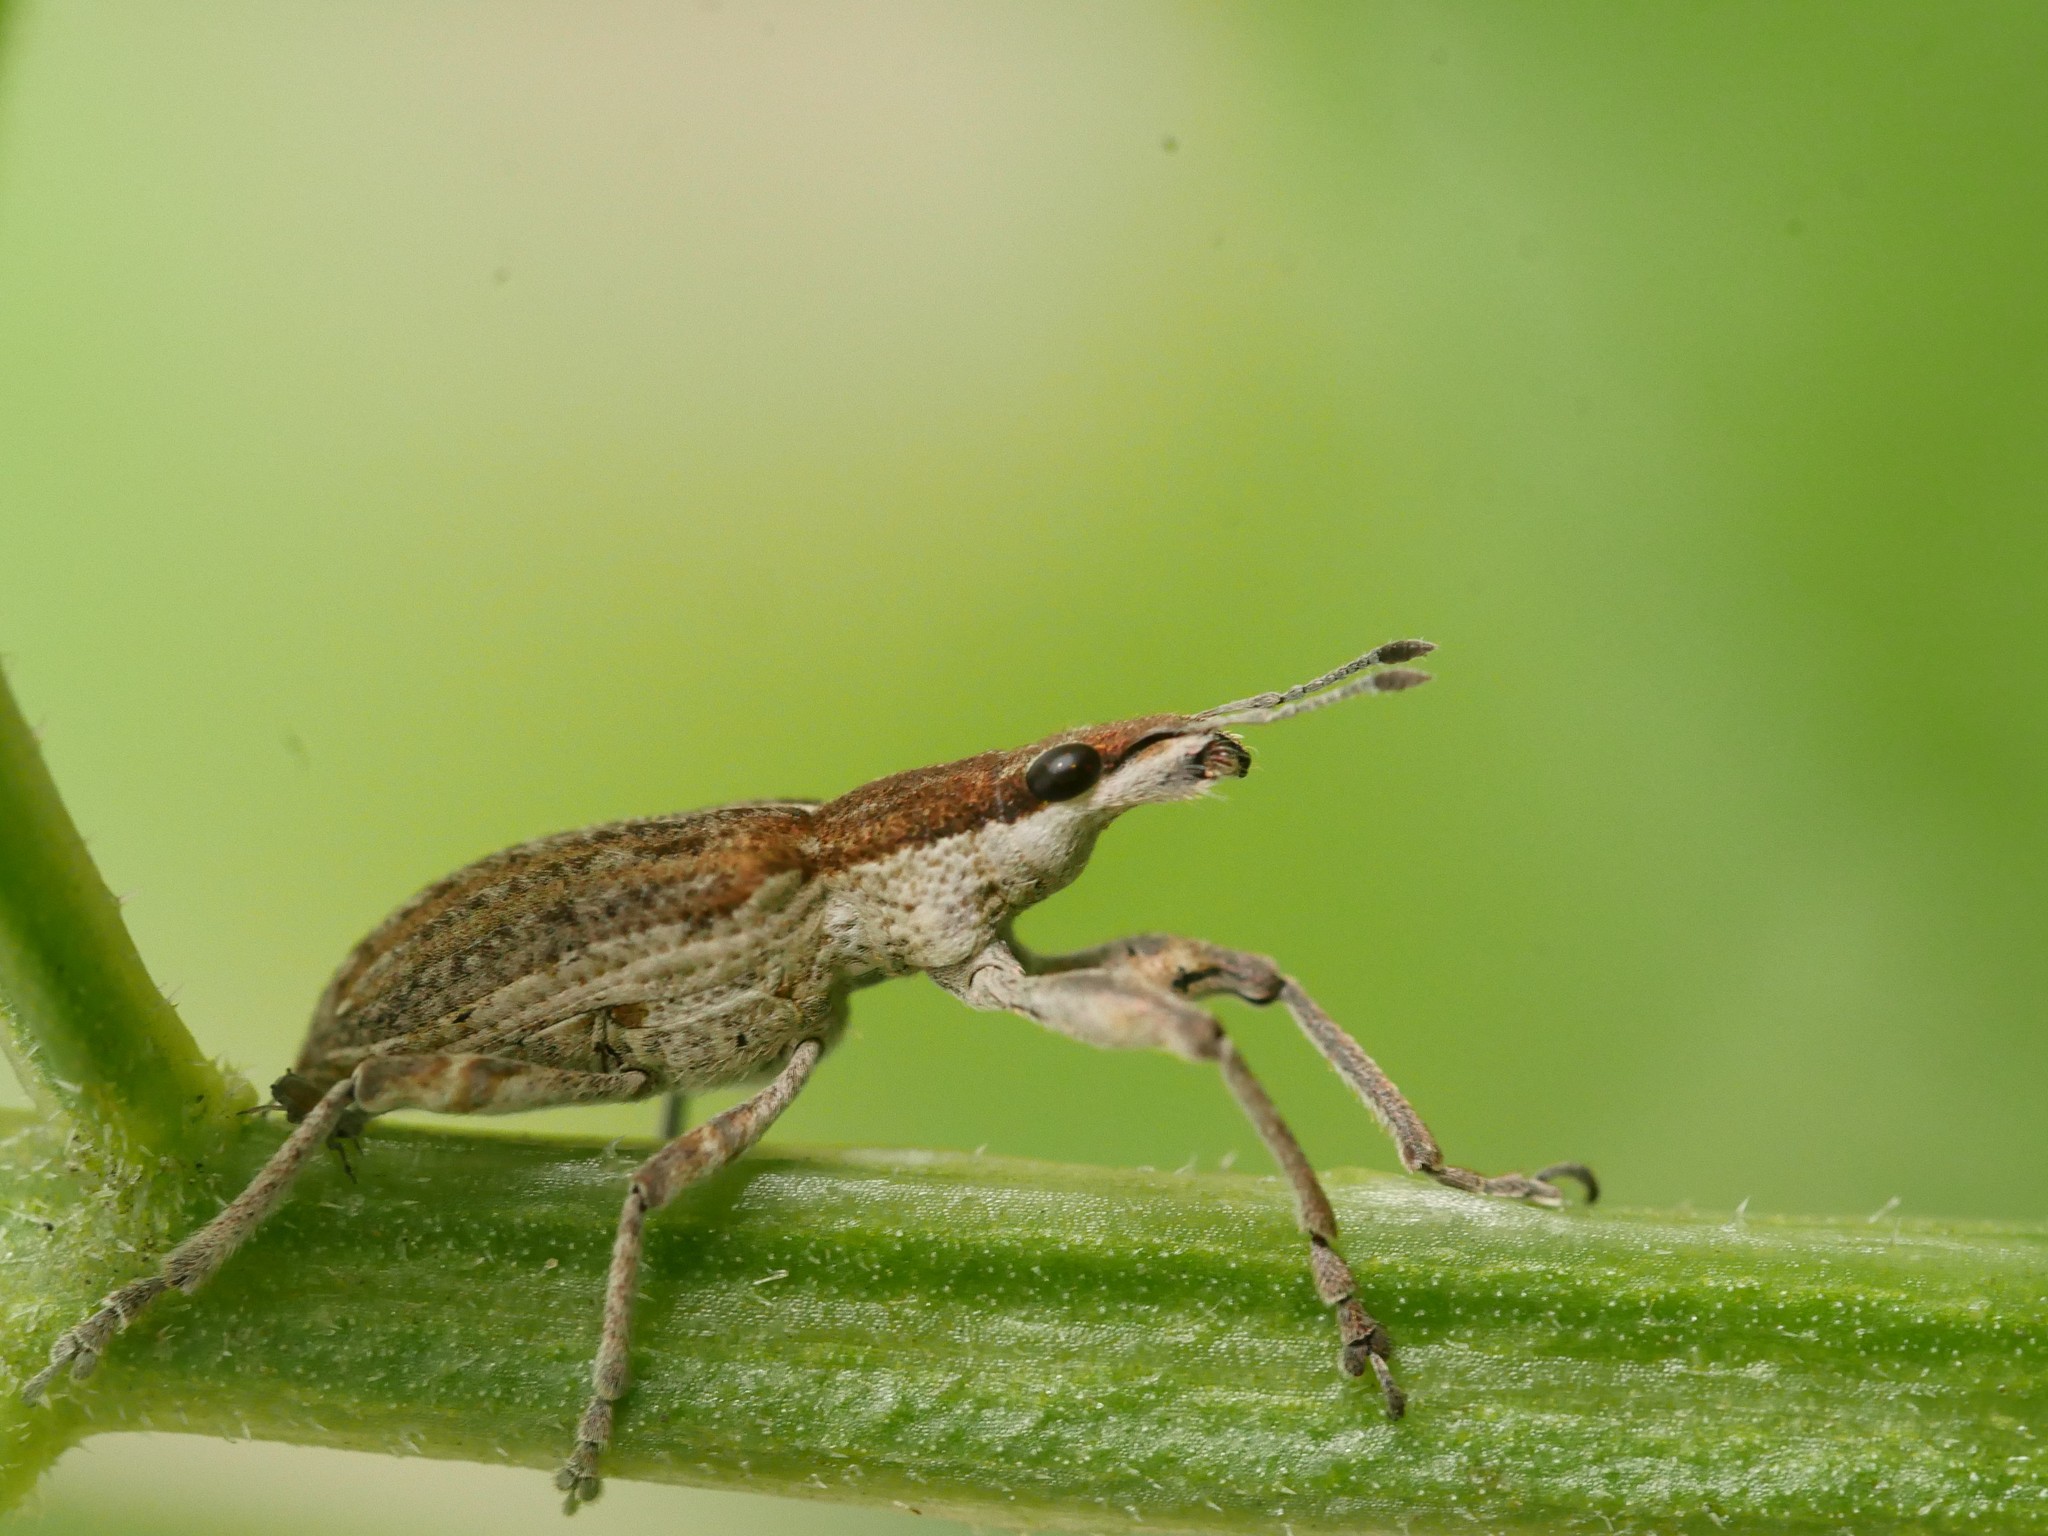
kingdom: Animalia
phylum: Arthropoda
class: Insecta
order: Coleoptera
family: Curculionidae
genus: Charagmus
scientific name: Charagmus gressorius
